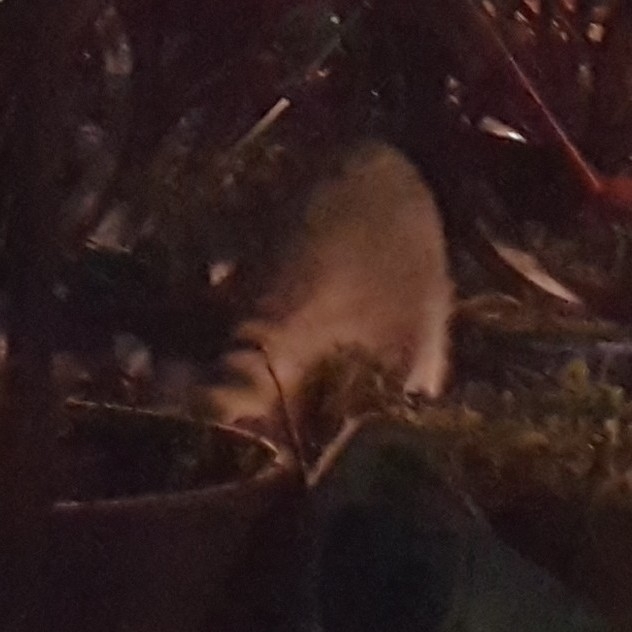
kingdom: Animalia
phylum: Chordata
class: Mammalia
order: Carnivora
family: Procyonidae
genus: Procyon
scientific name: Procyon lotor
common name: Raccoon
